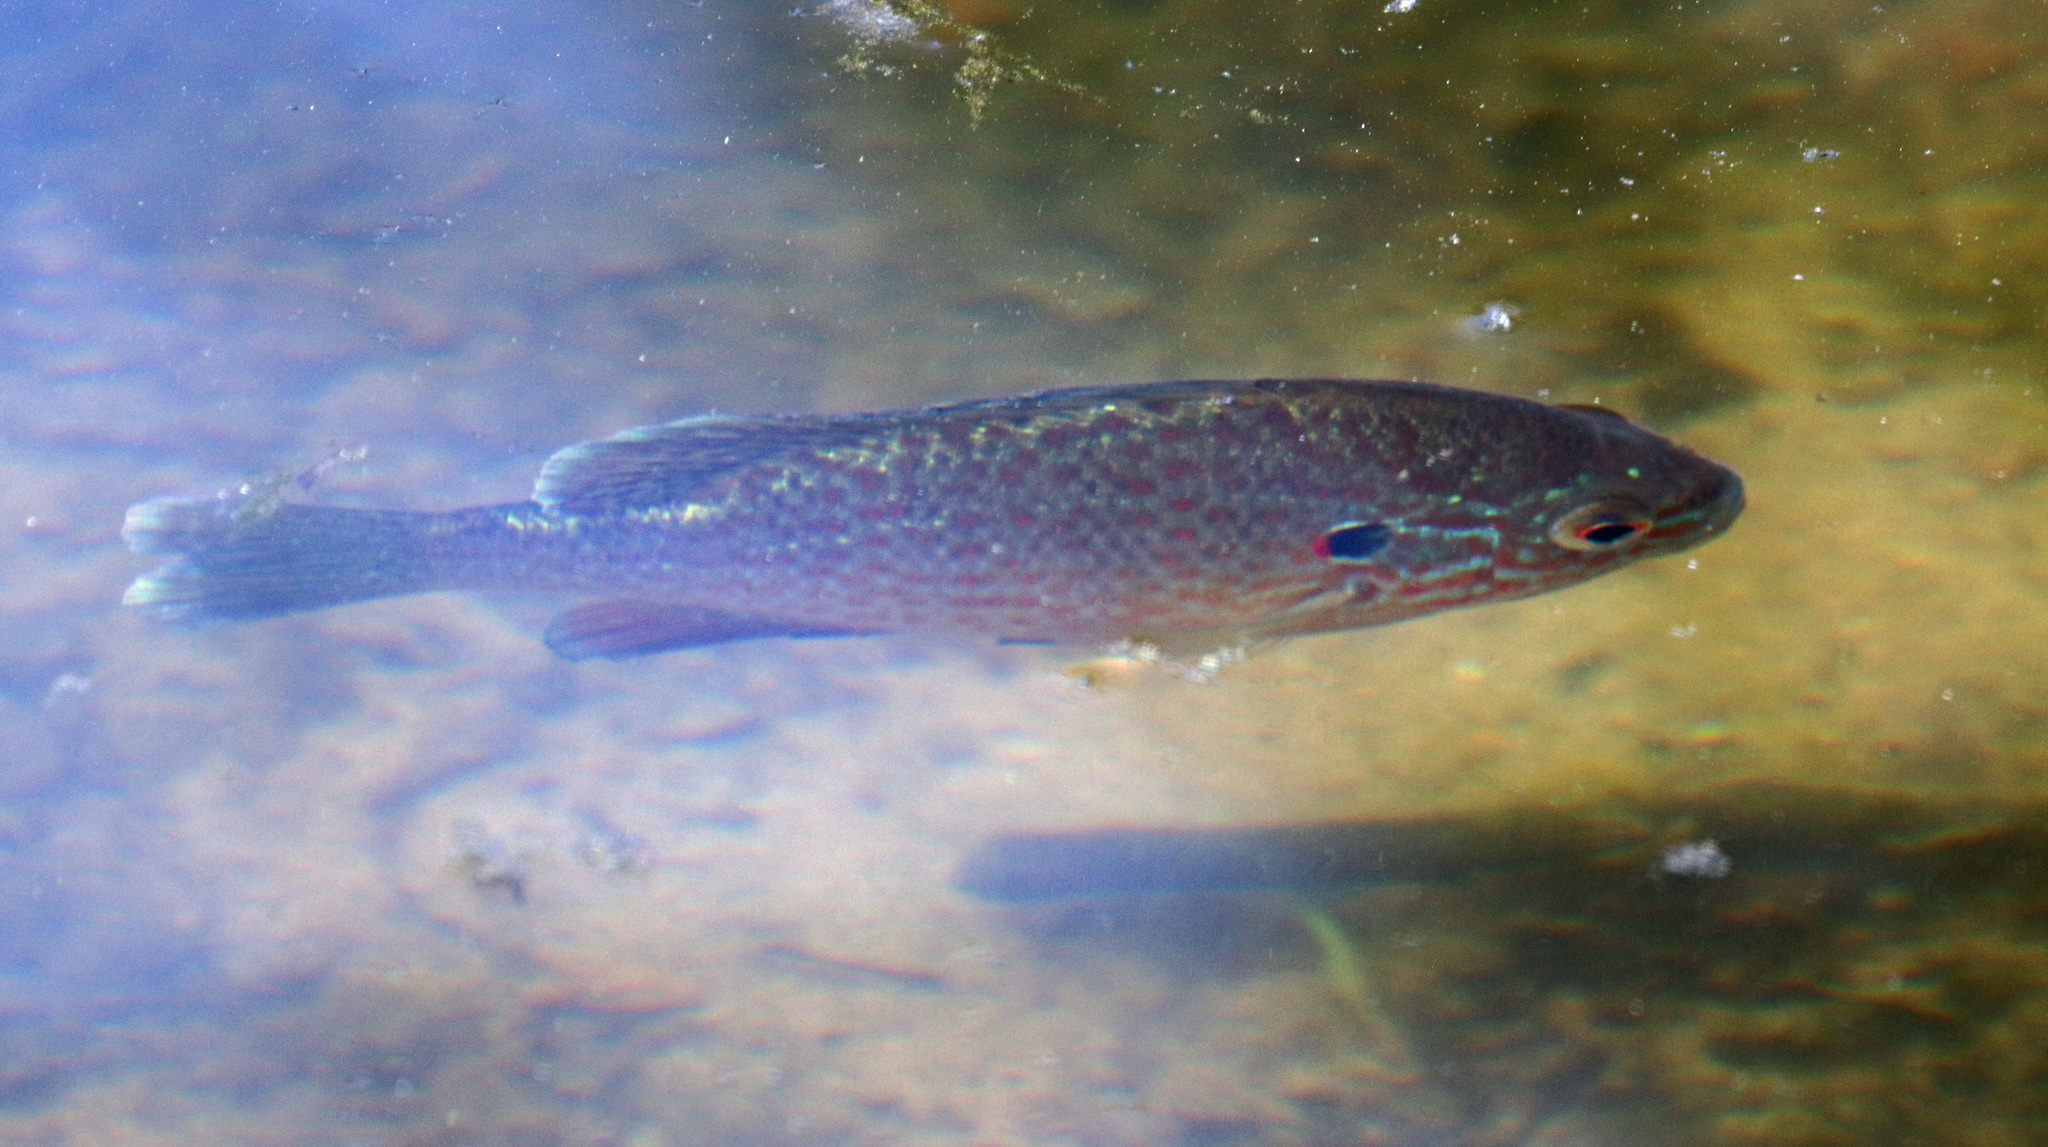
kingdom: Animalia
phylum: Chordata
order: Perciformes
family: Centrarchidae
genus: Lepomis
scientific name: Lepomis gibbosus
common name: Pumpkinseed
